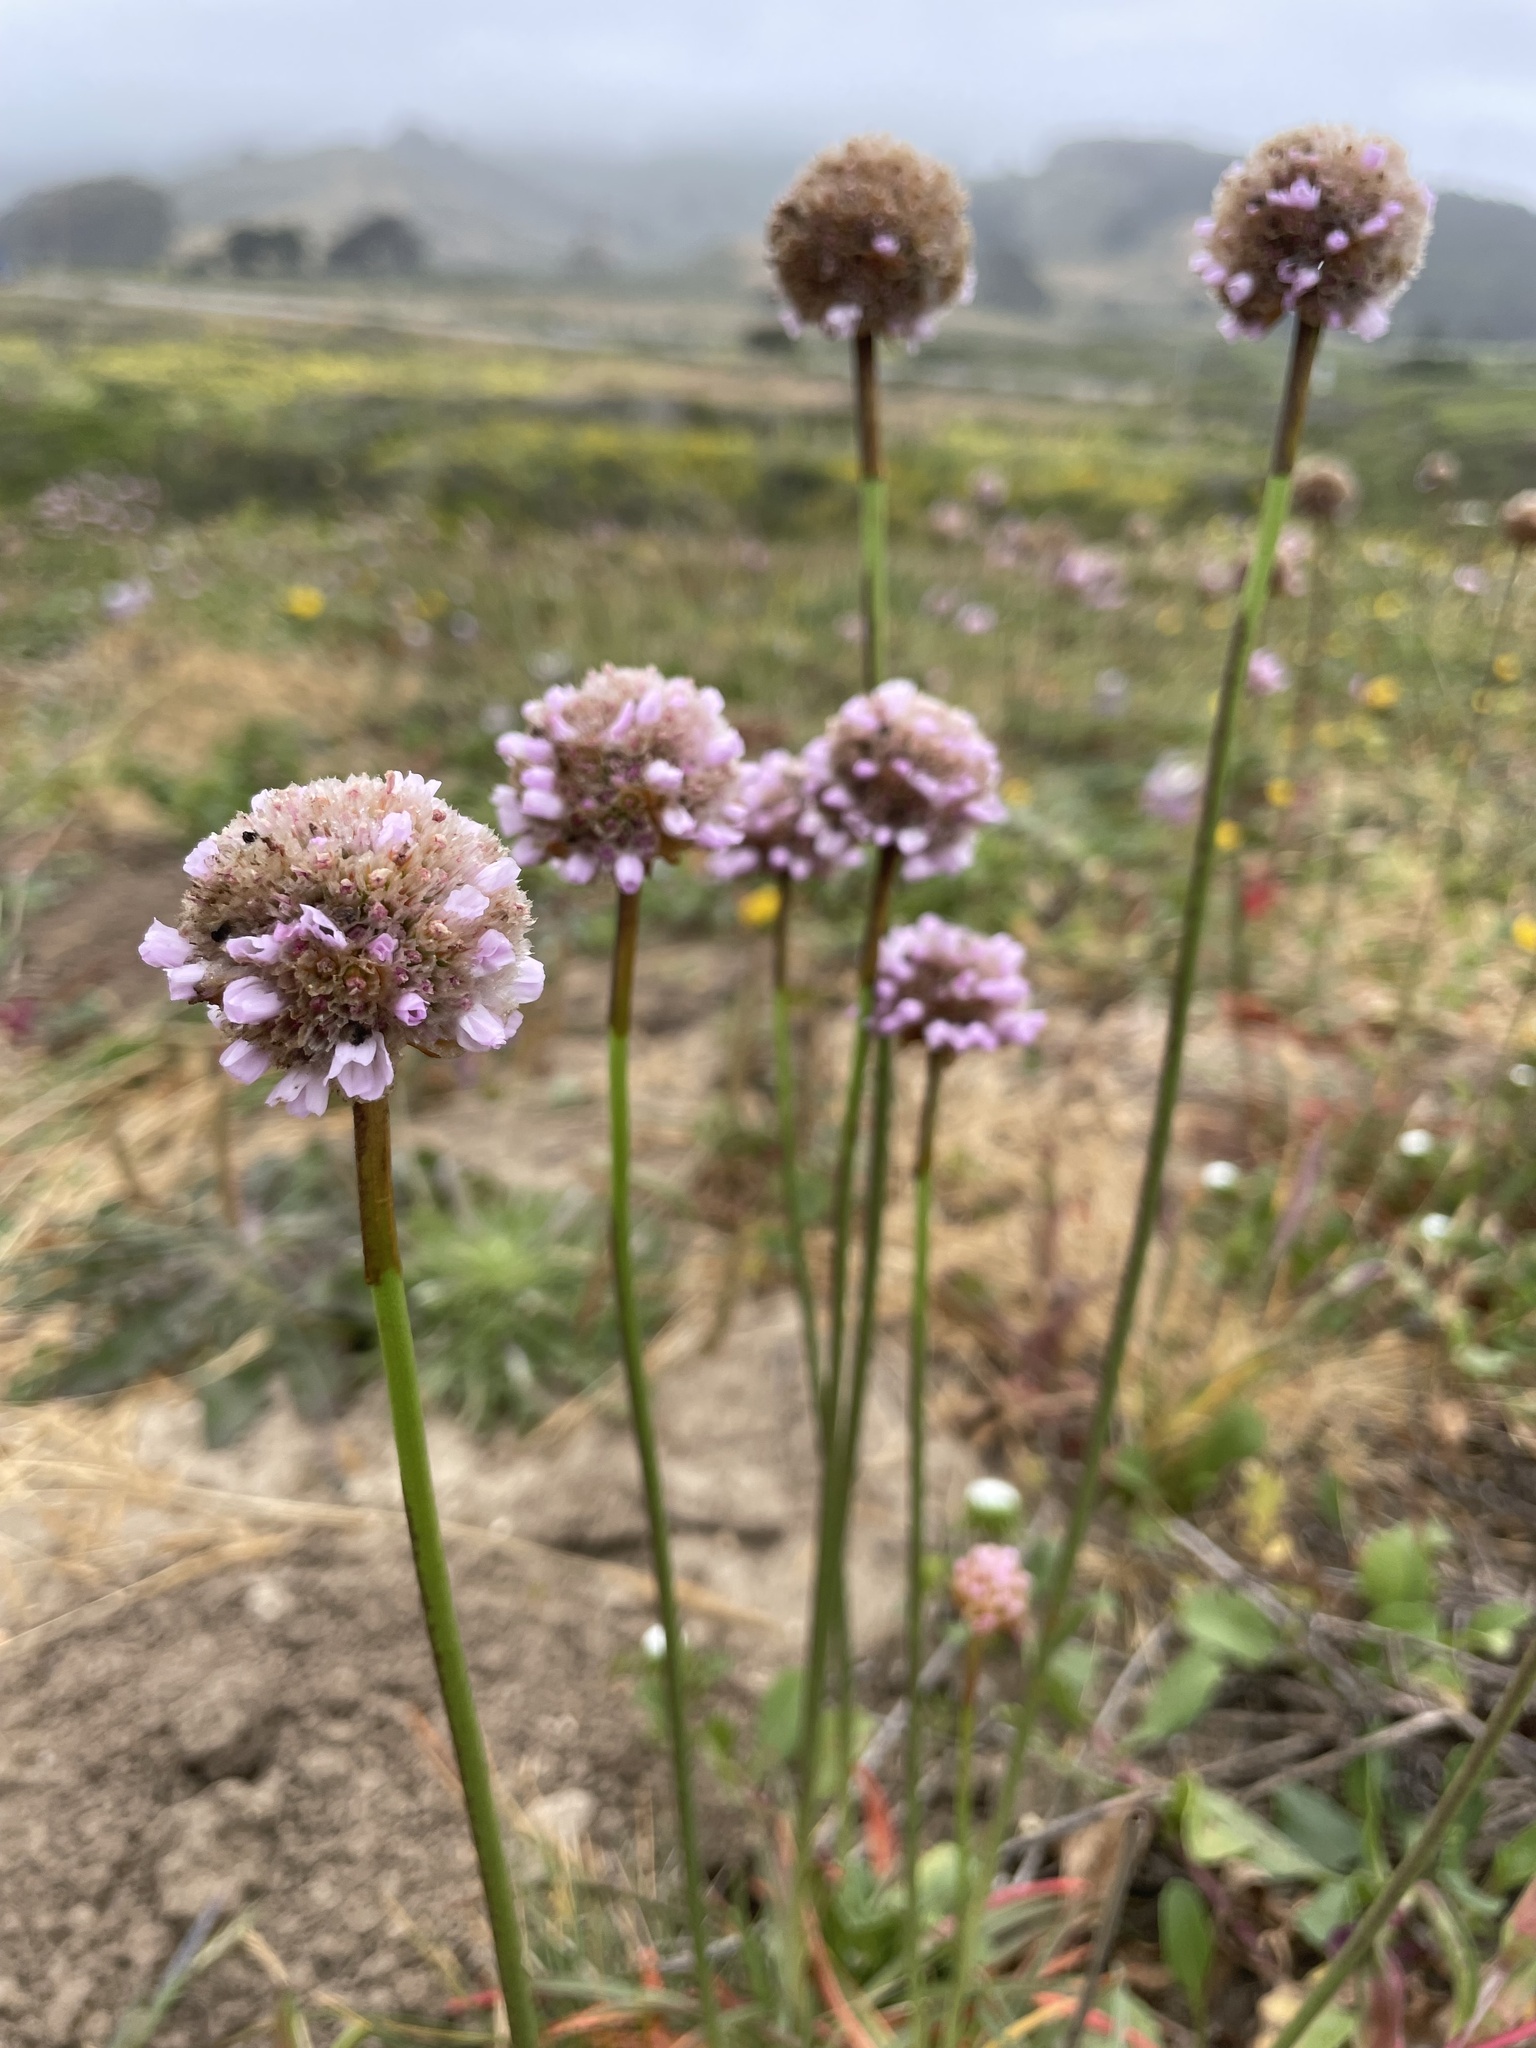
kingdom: Plantae
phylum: Tracheophyta
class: Magnoliopsida
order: Caryophyllales
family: Plumbaginaceae
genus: Armeria
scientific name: Armeria maritima
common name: Thrift
